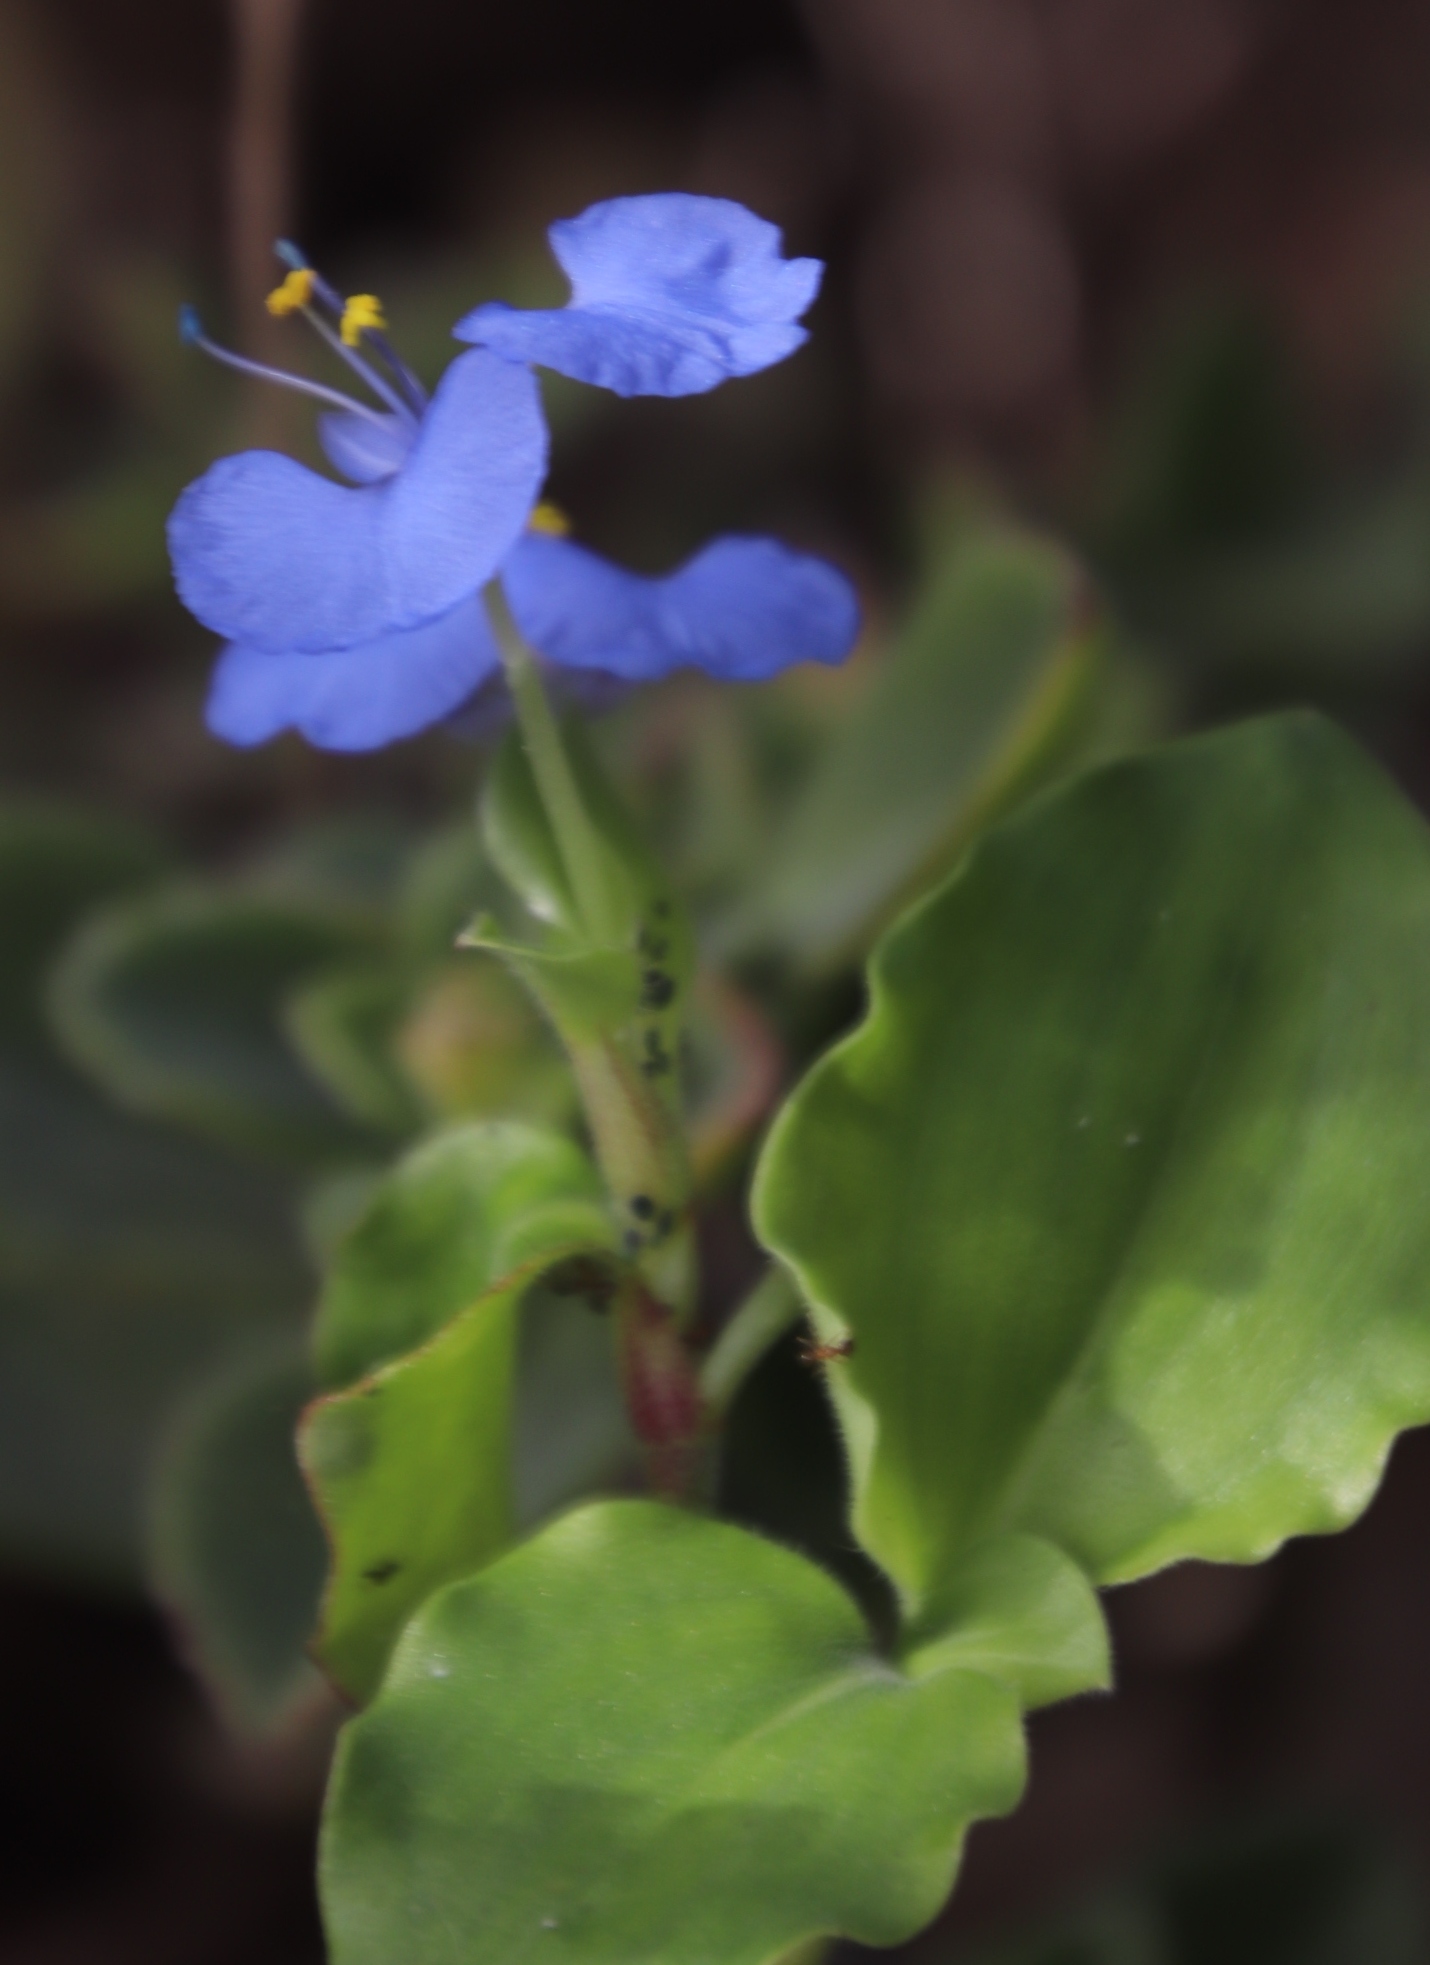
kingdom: Plantae
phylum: Tracheophyta
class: Liliopsida
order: Commelinales
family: Commelinaceae
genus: Commelina
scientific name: Commelina benghalensis
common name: Jio
